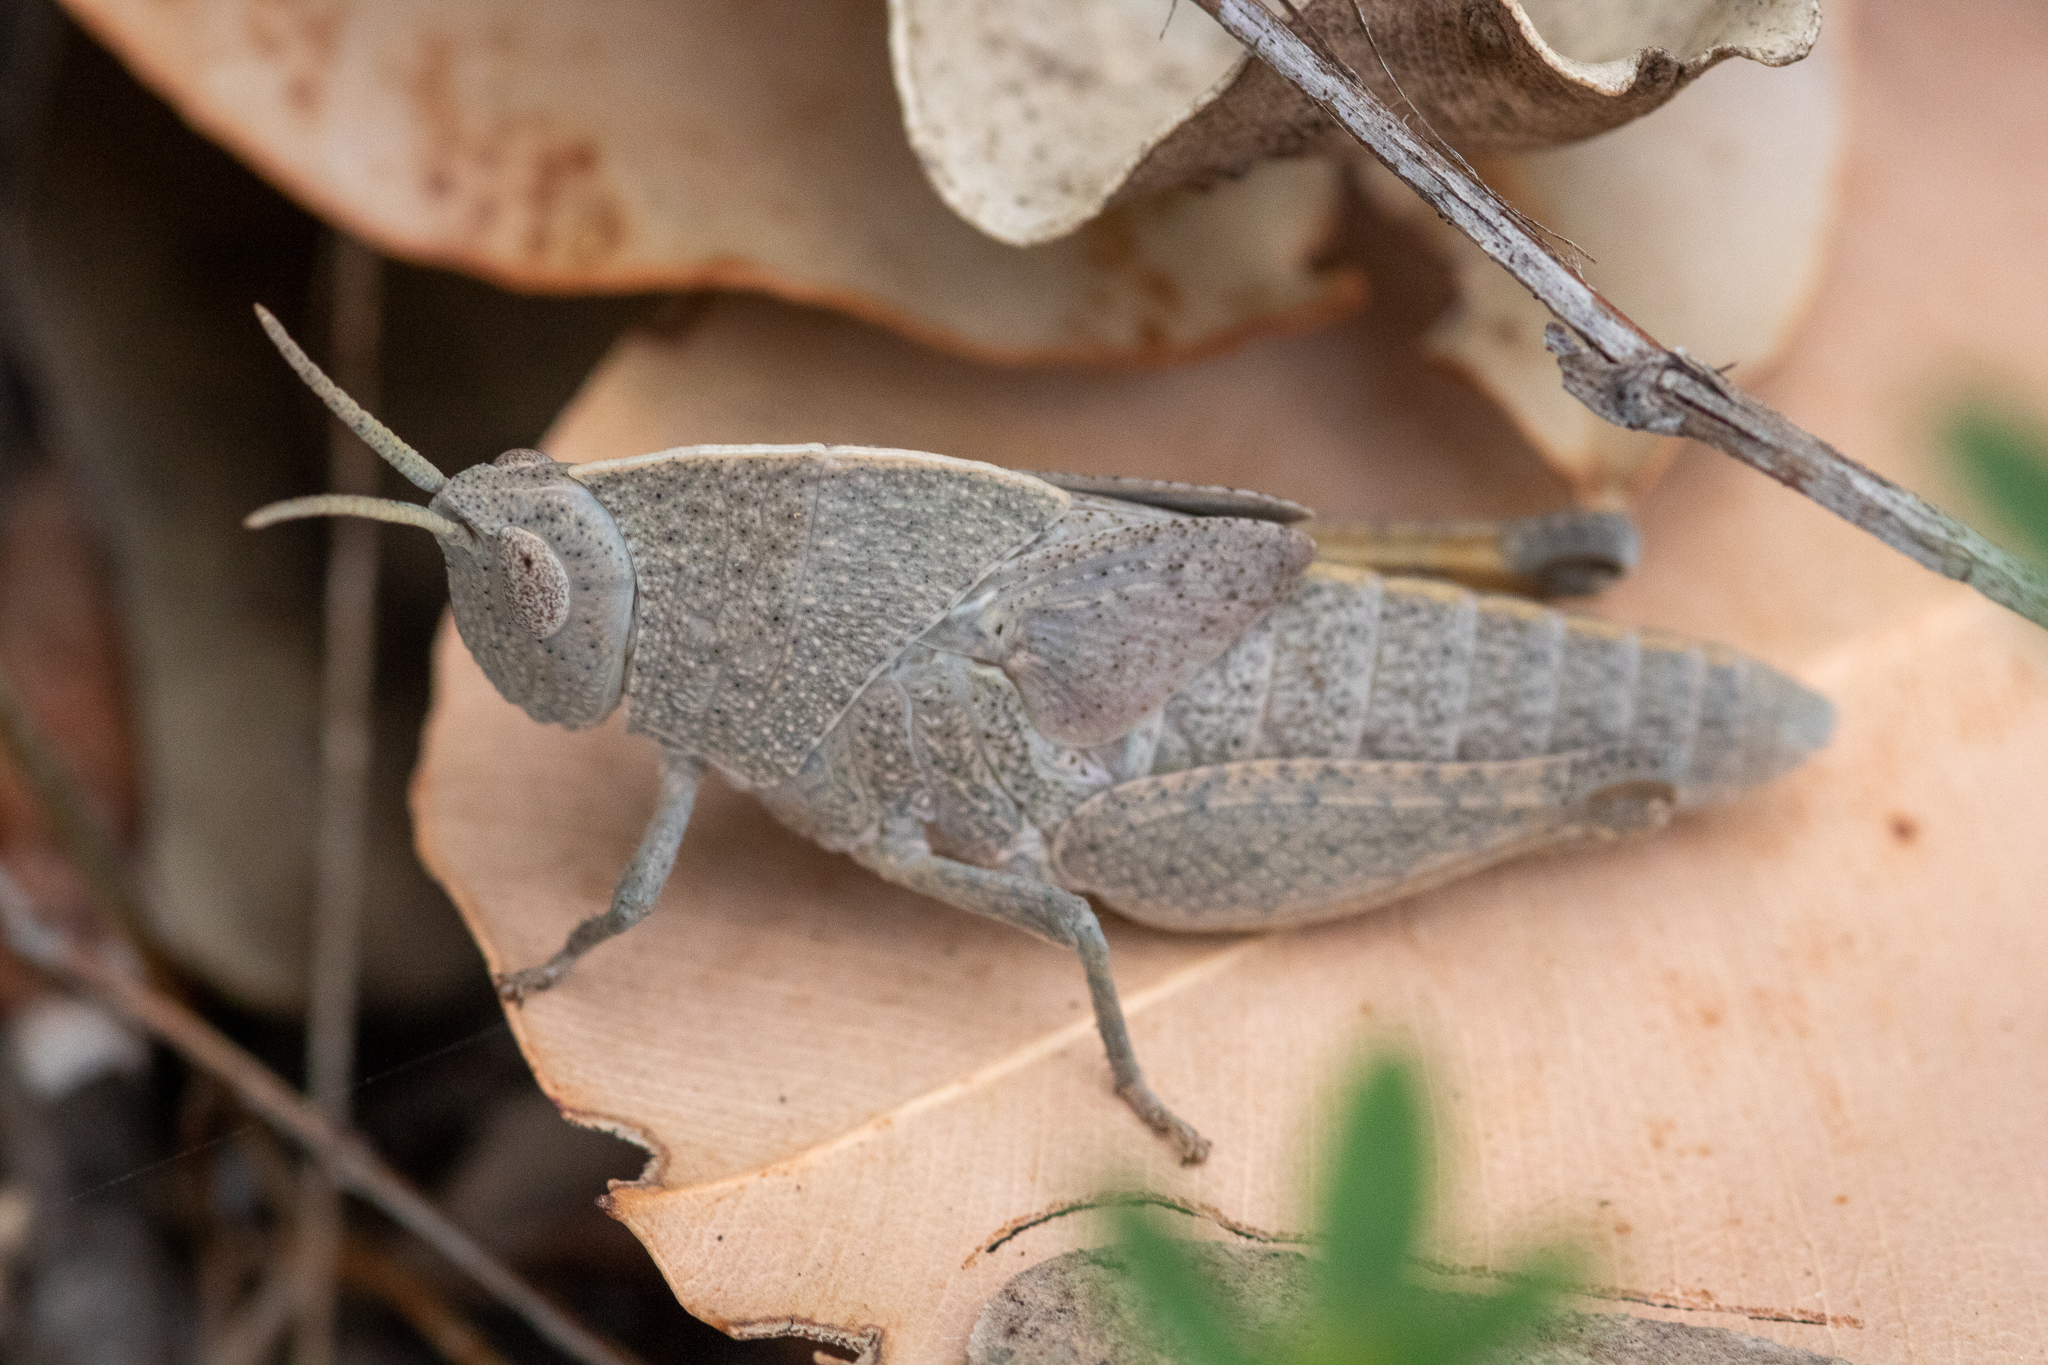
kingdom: Animalia
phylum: Arthropoda
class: Insecta
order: Orthoptera
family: Acrididae
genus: Goniaea
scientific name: Goniaea australasiae
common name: Gumleaf grasshopper
